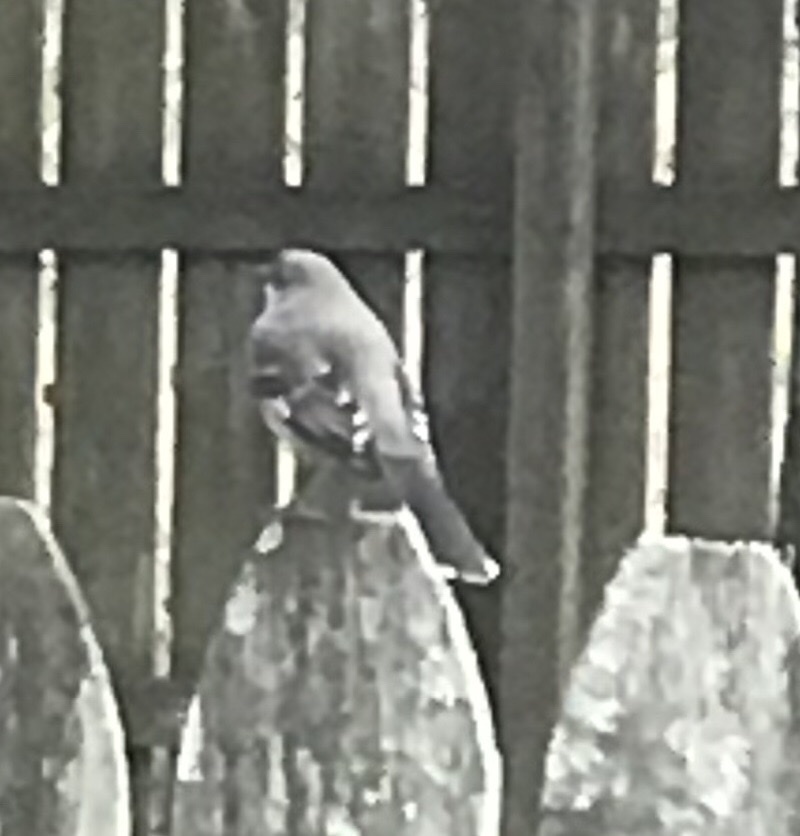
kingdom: Animalia
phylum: Chordata
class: Aves
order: Passeriformes
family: Mimidae
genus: Mimus
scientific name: Mimus polyglottos
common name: Northern mockingbird
